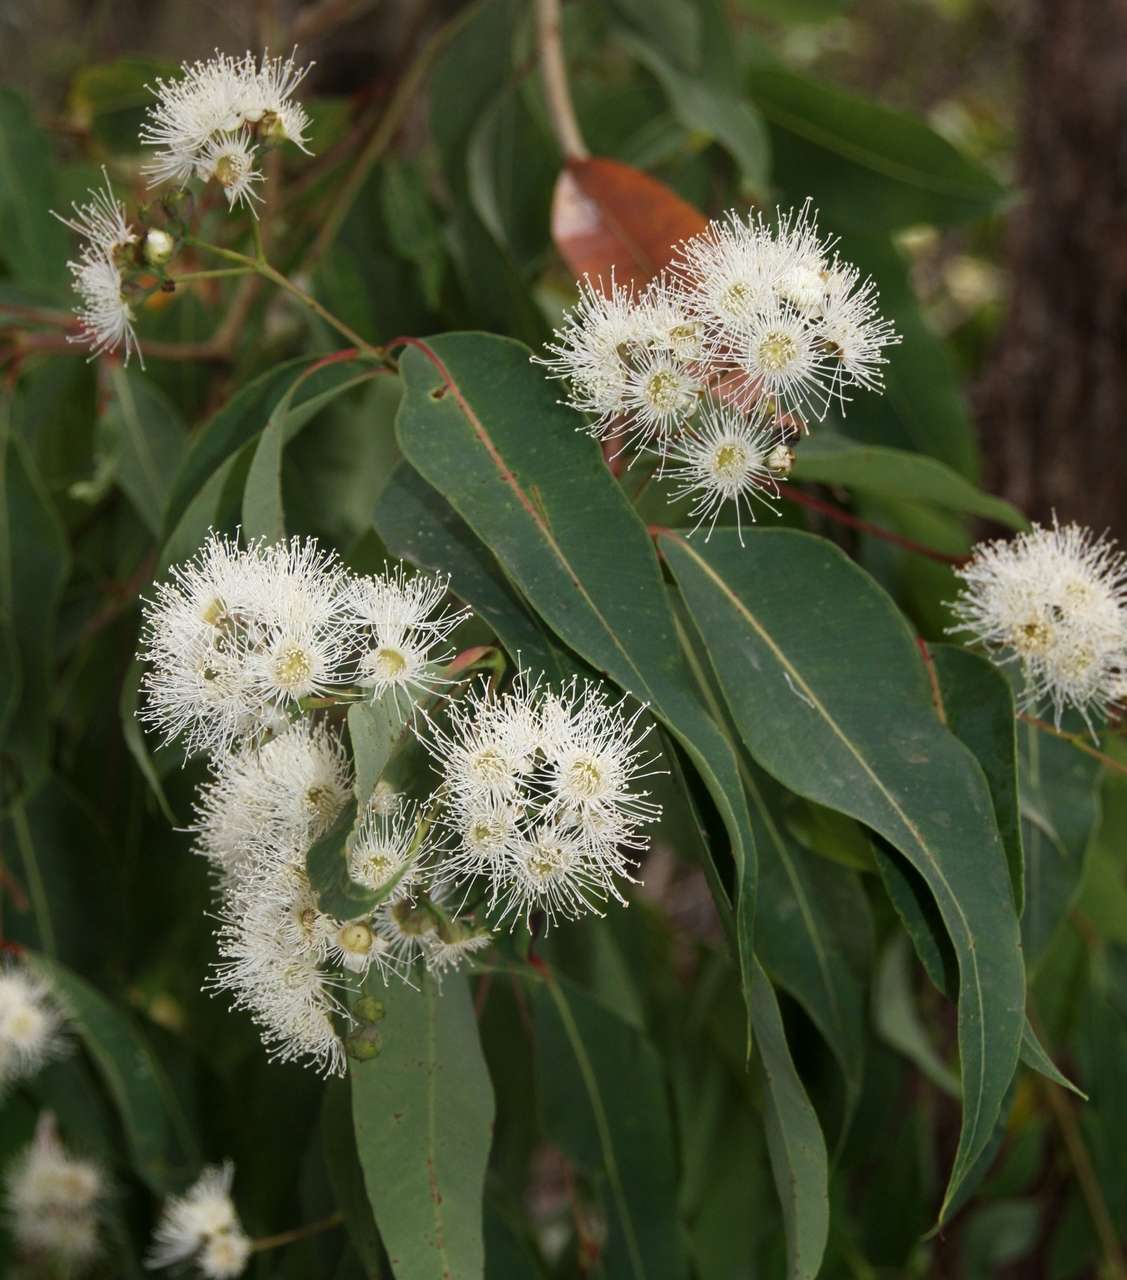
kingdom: Plantae
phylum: Tracheophyta
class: Magnoliopsida
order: Myrtales
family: Myrtaceae
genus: Angophora
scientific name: Angophora floribunda
